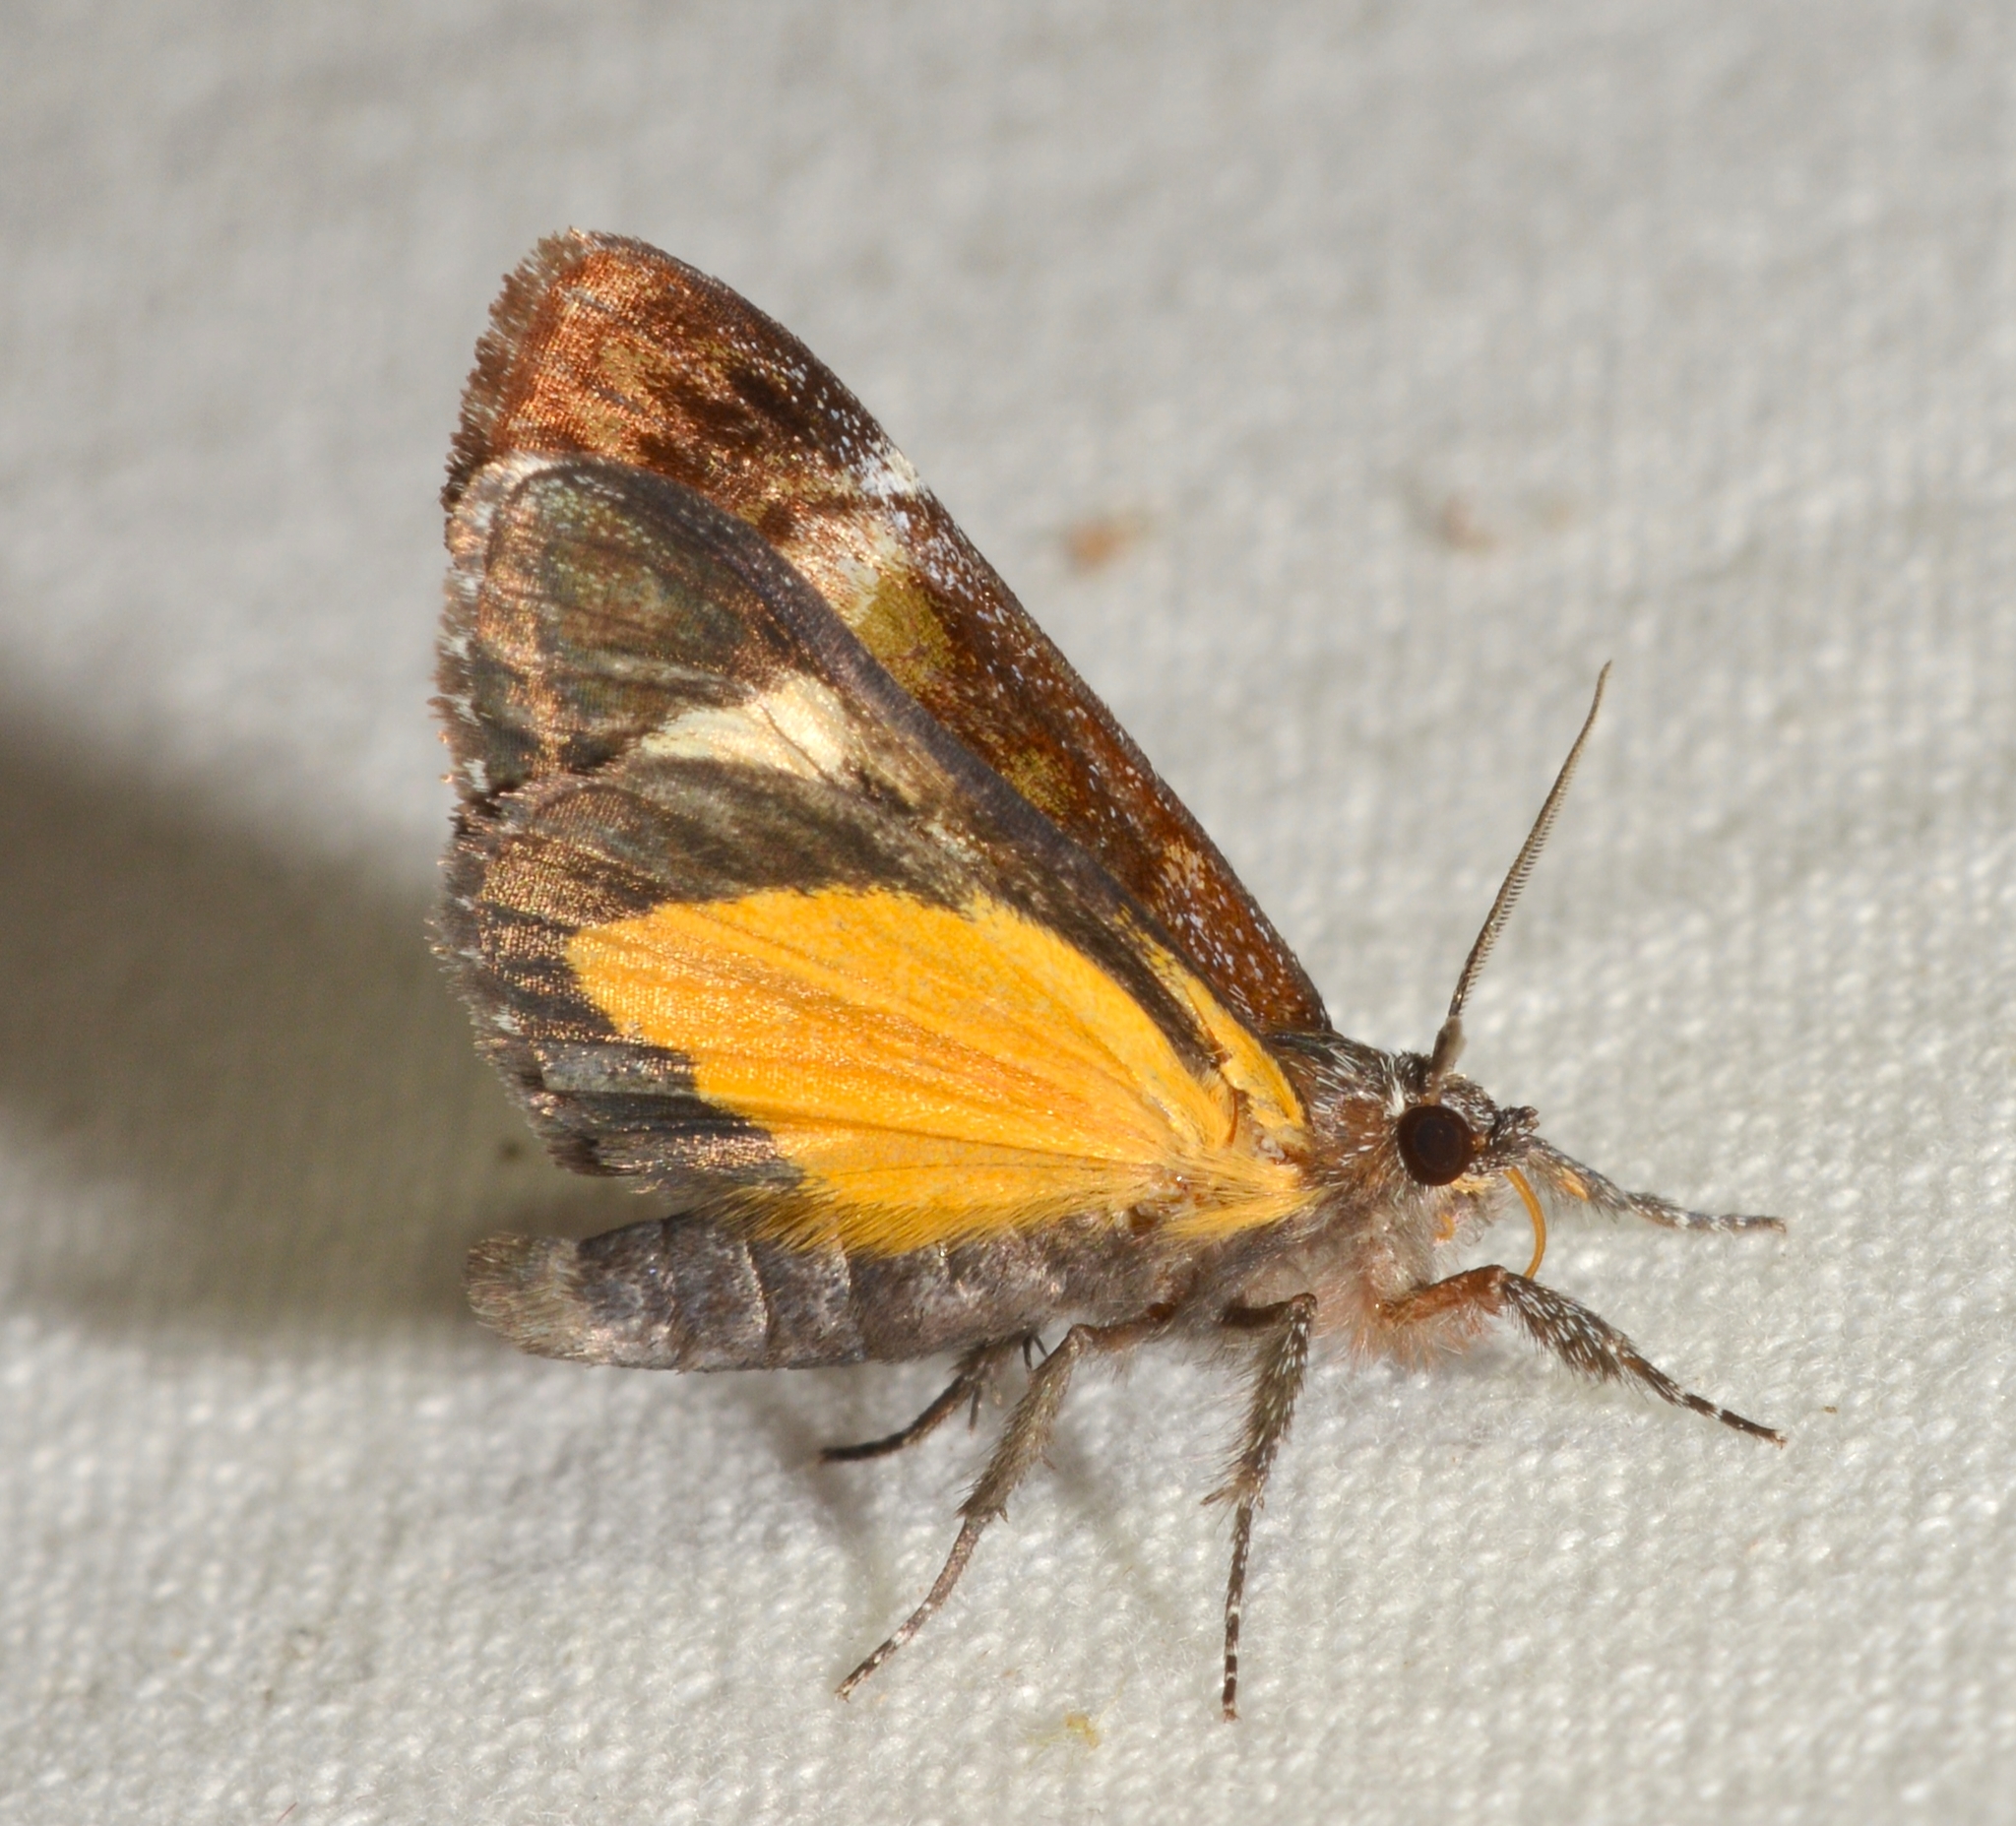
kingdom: Animalia
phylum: Arthropoda
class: Insecta
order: Lepidoptera
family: Noctuidae
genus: Gerra
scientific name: Gerra aelia
